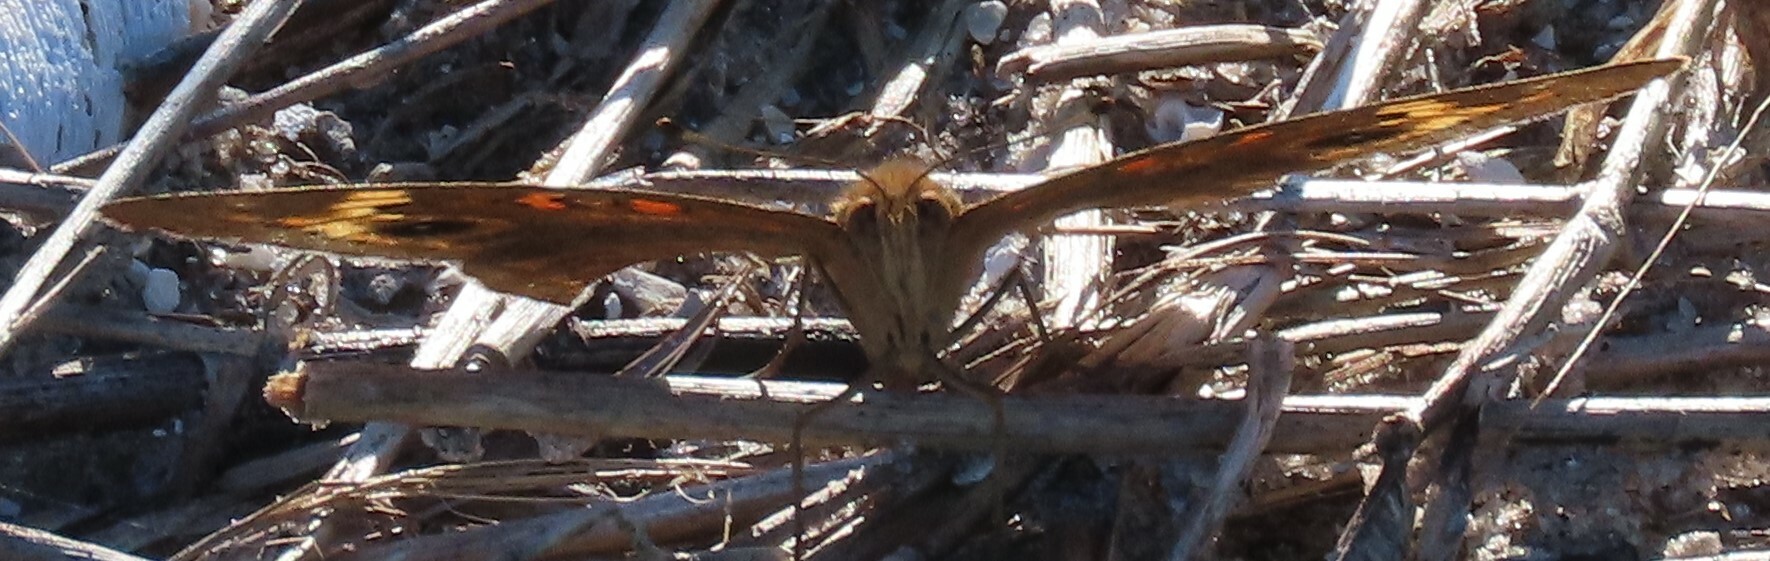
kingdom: Animalia
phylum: Arthropoda
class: Insecta
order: Lepidoptera
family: Nymphalidae
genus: Junonia
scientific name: Junonia neildi
